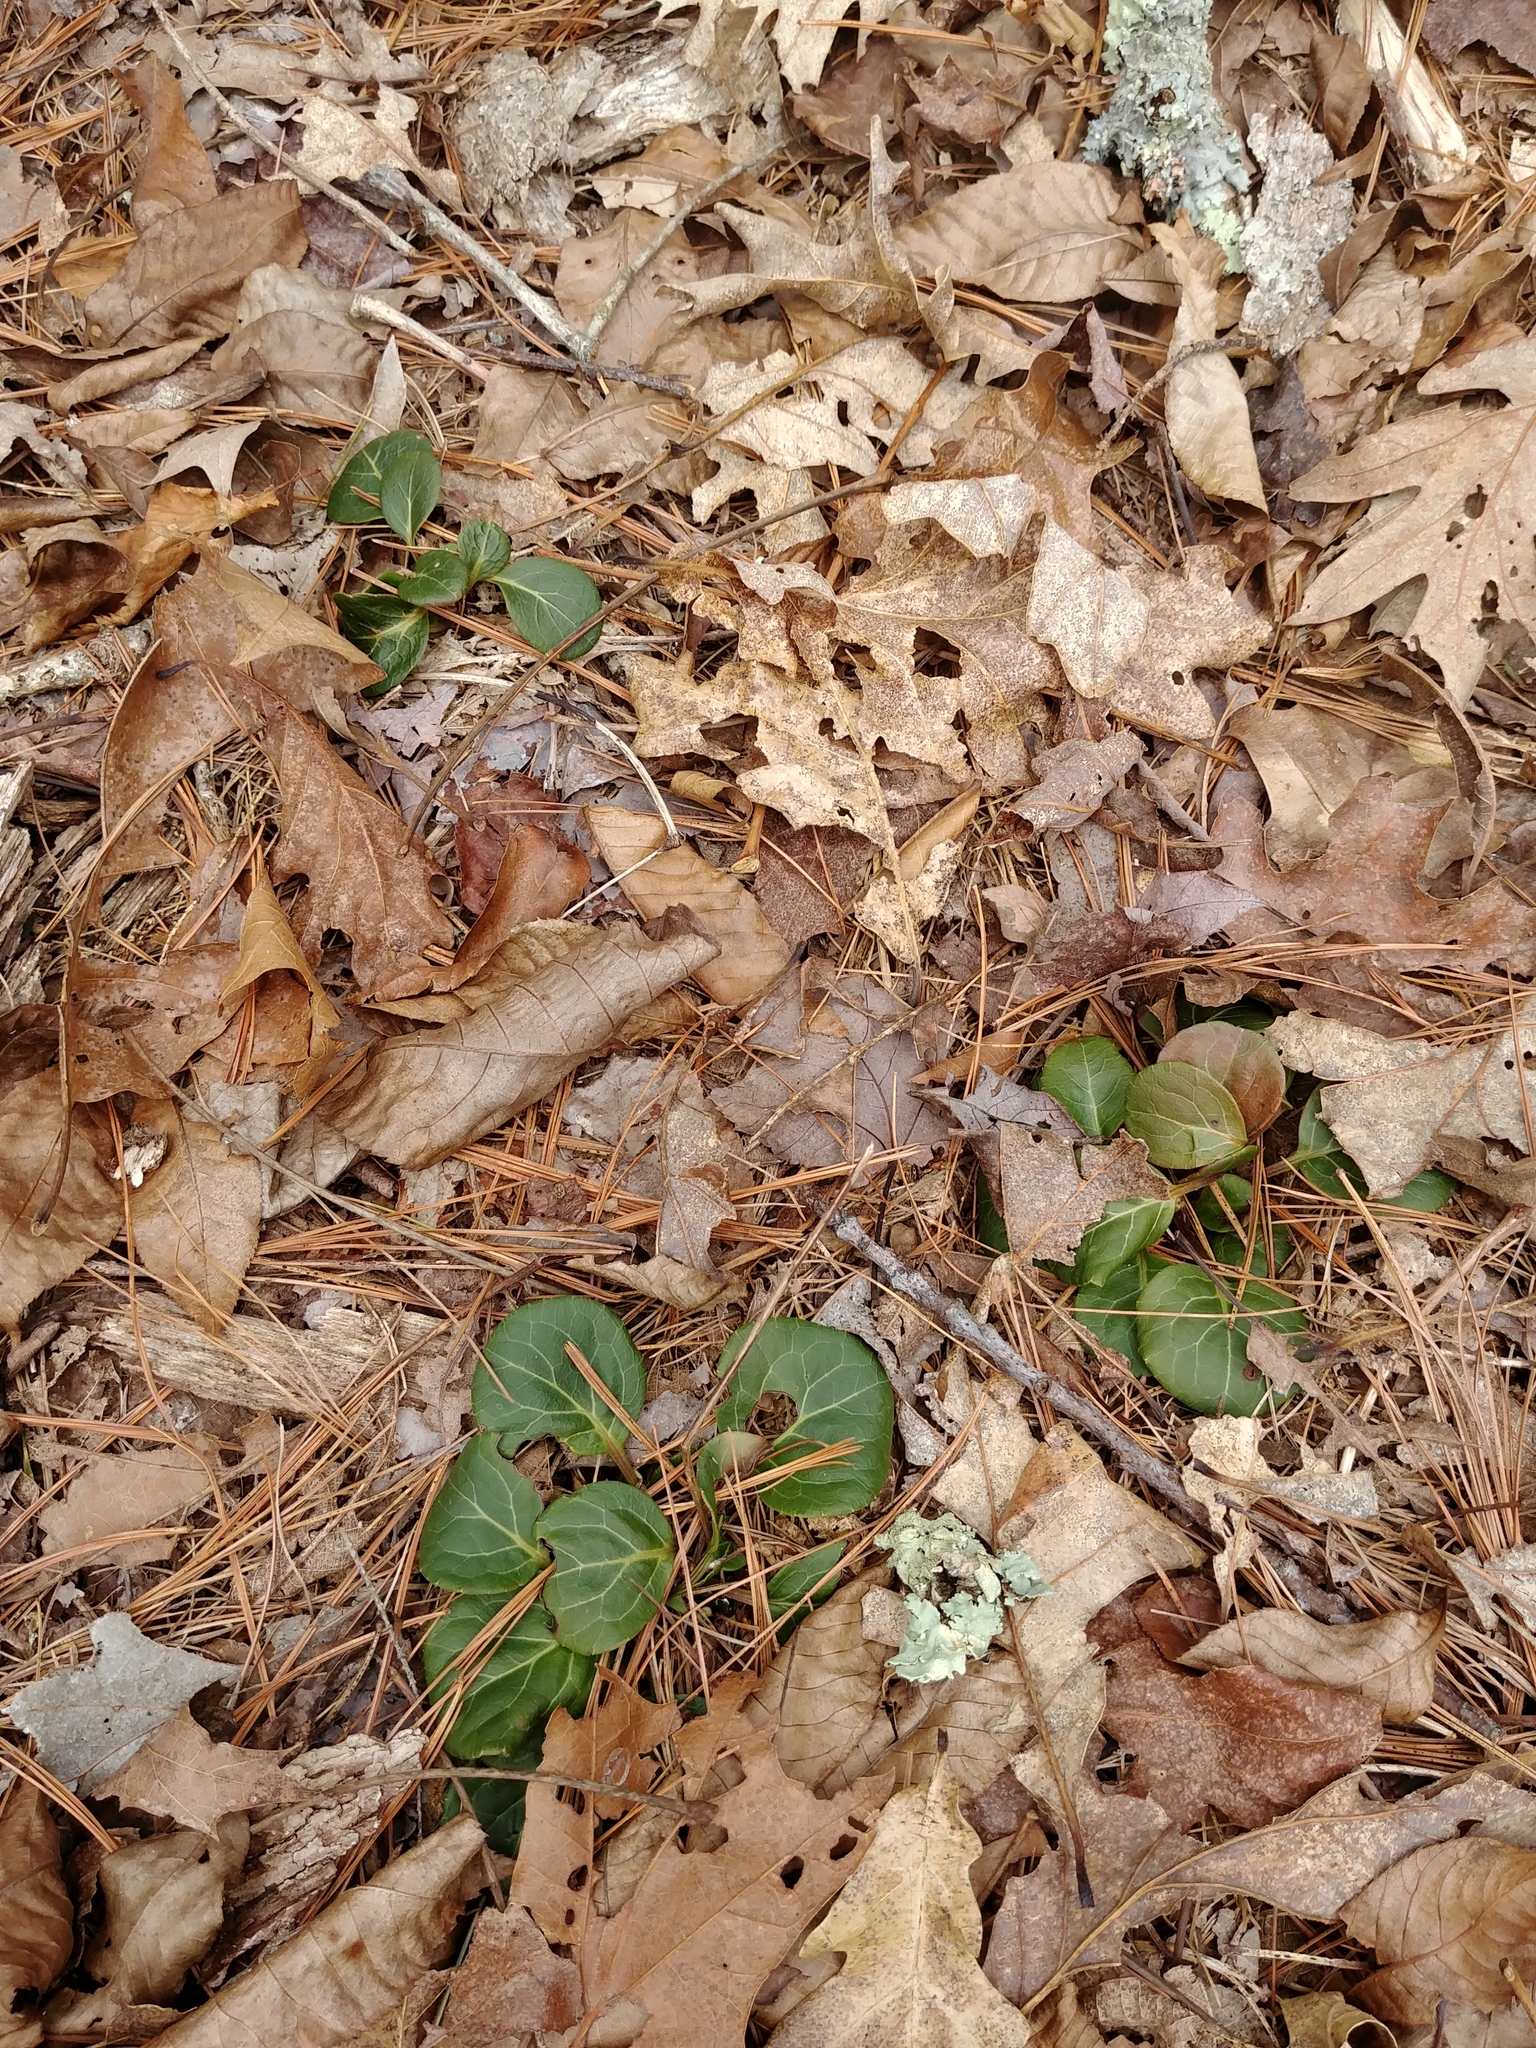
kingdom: Plantae
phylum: Tracheophyta
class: Magnoliopsida
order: Ericales
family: Ericaceae
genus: Pyrola
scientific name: Pyrola americana
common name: American wintergreen
